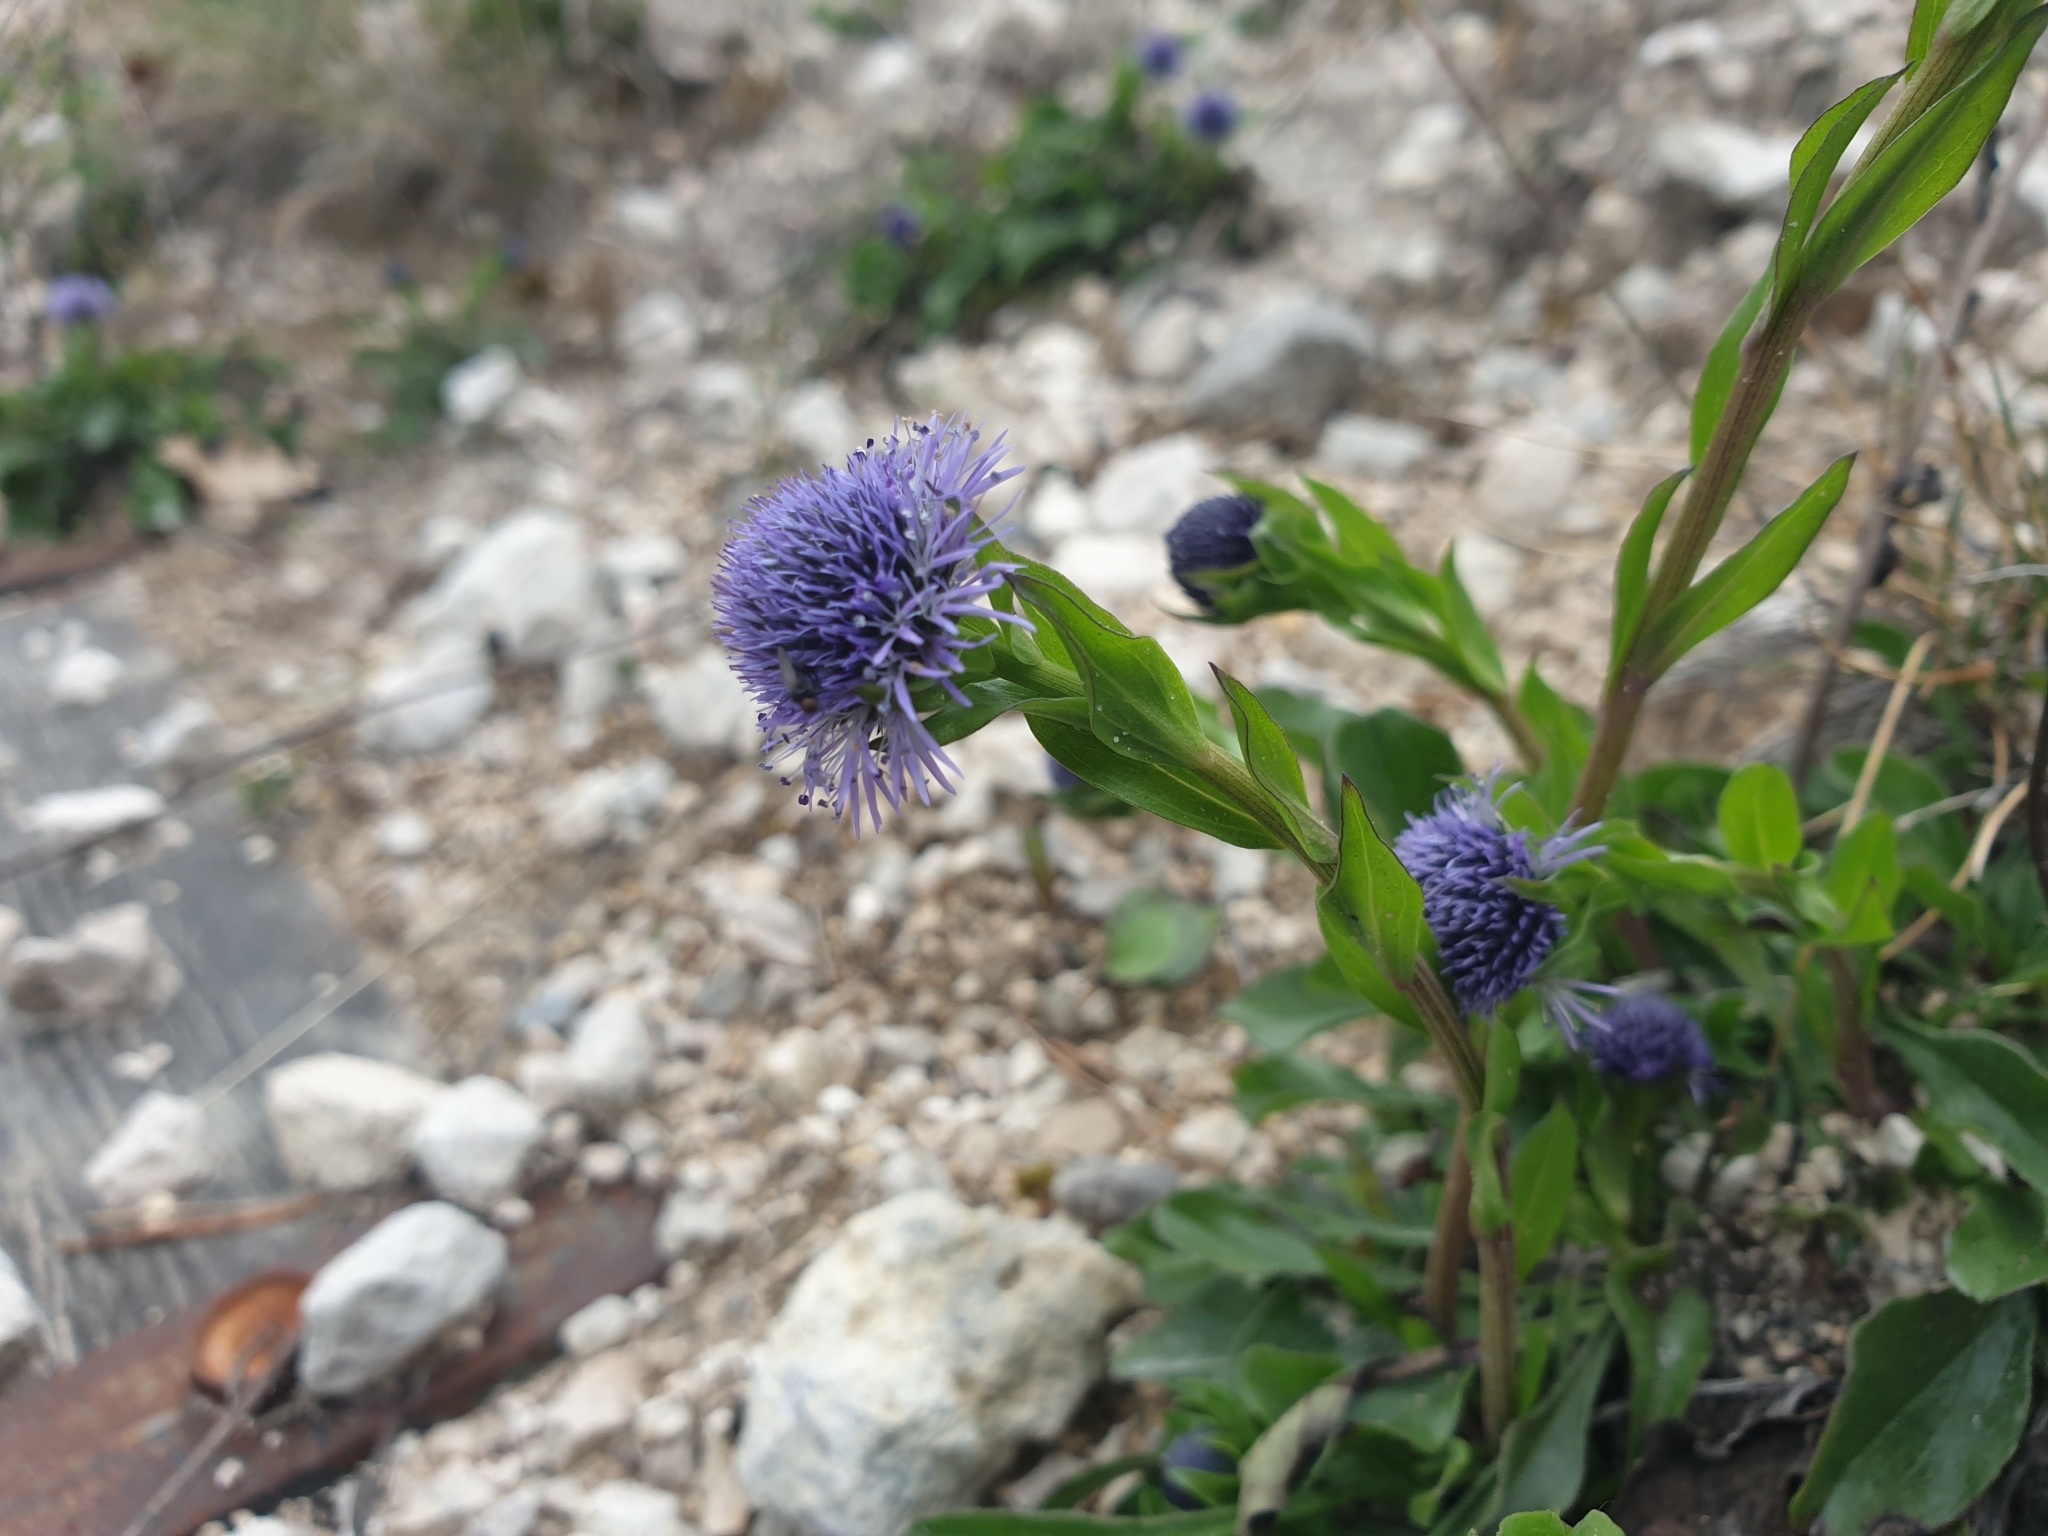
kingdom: Plantae
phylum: Tracheophyta
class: Magnoliopsida
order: Lamiales
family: Plantaginaceae
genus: Globularia
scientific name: Globularia bisnagarica
